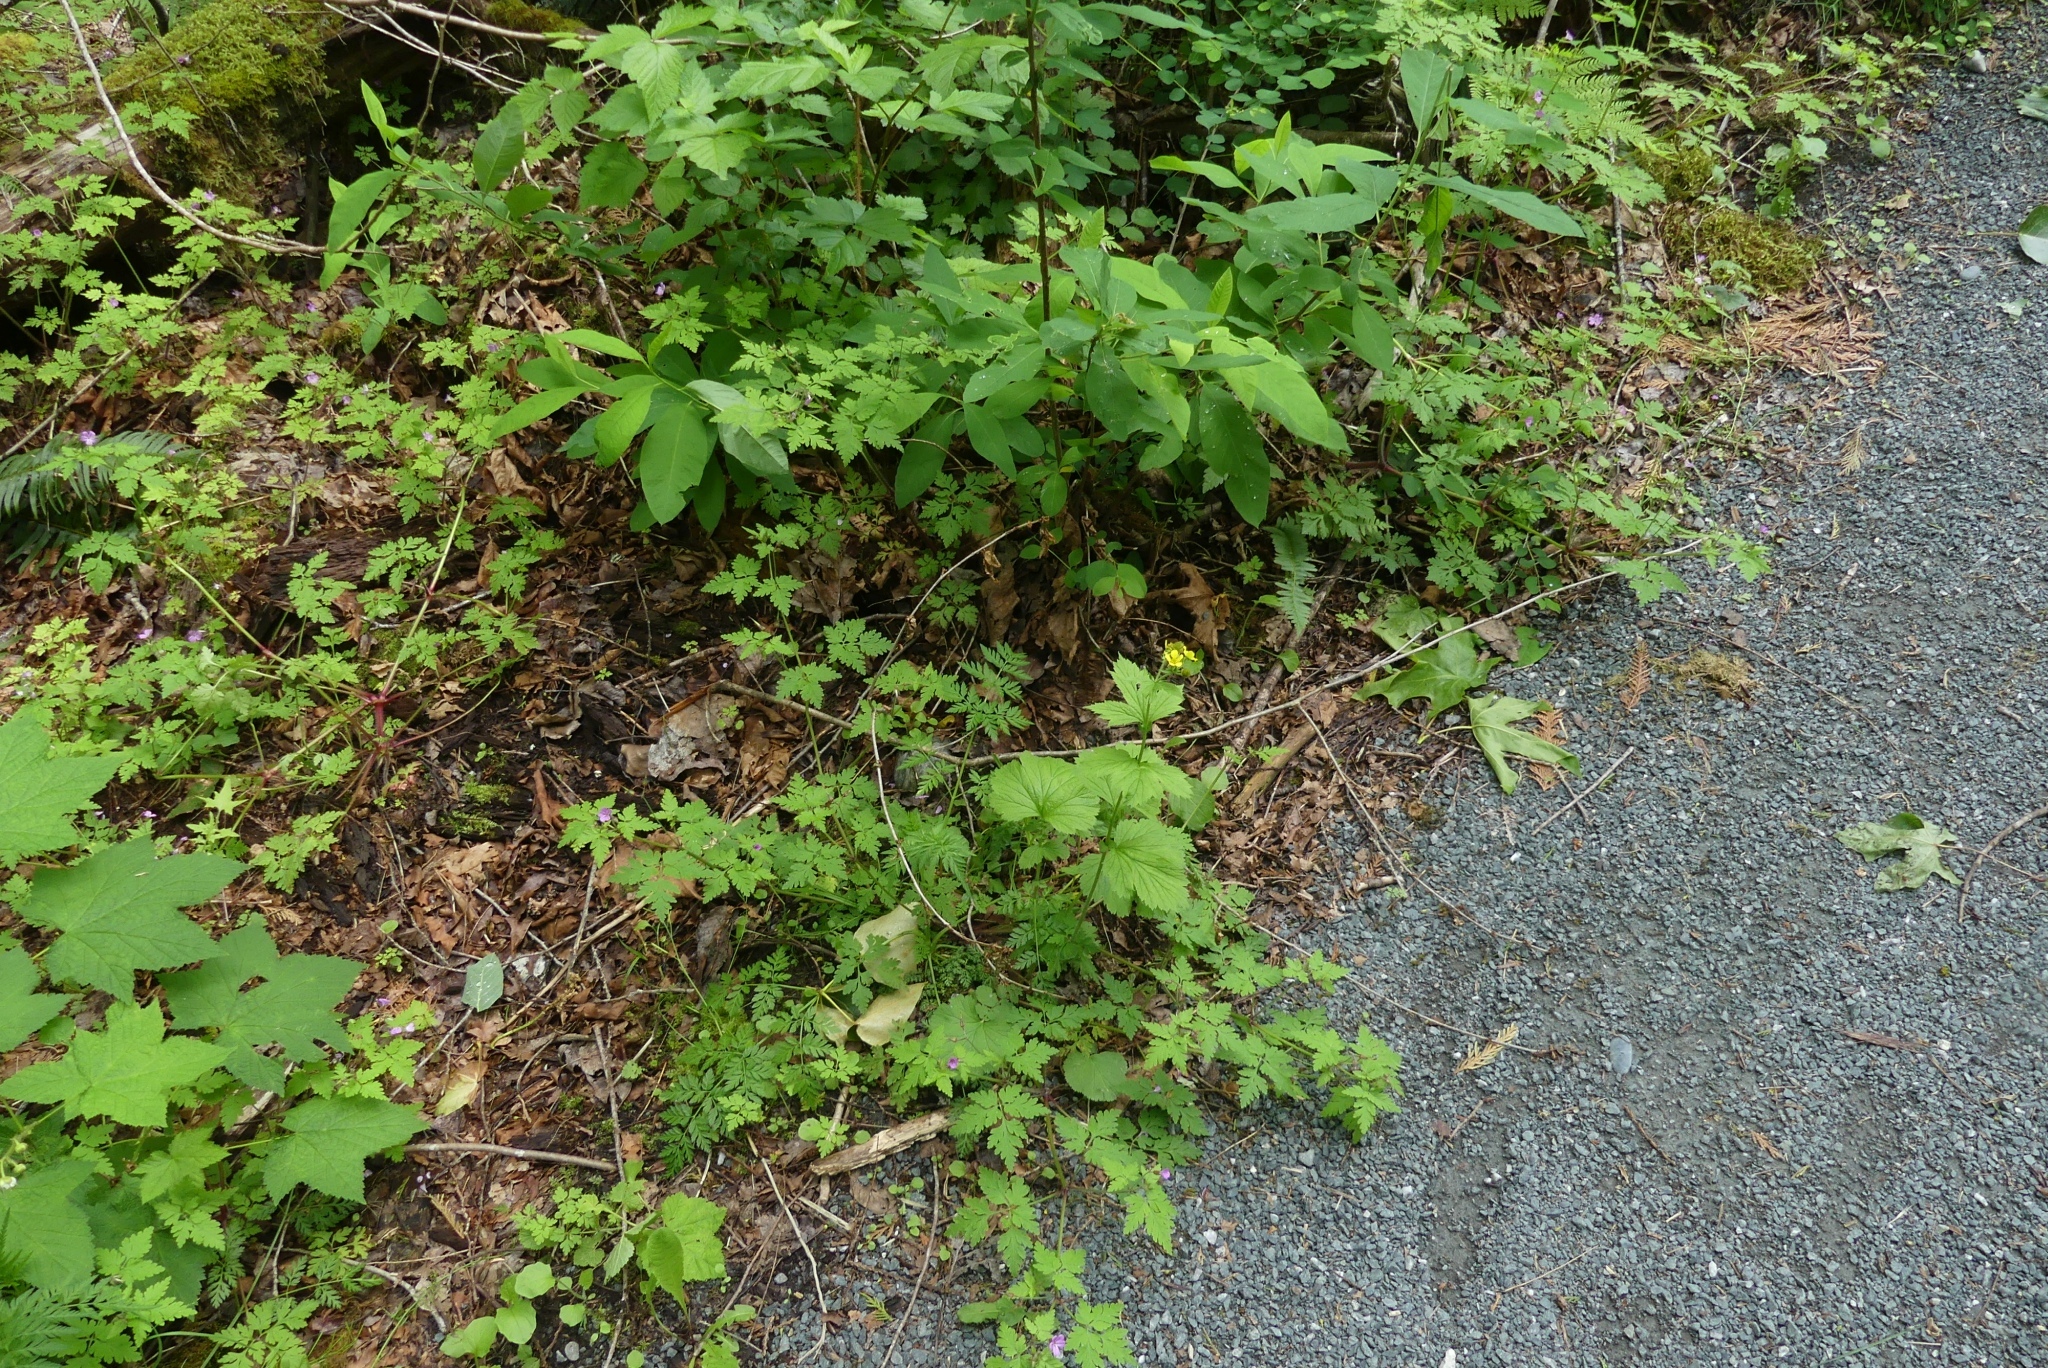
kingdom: Plantae
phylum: Tracheophyta
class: Magnoliopsida
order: Rosales
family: Rosaceae
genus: Geum
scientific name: Geum macrophyllum
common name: Large-leaved avens
